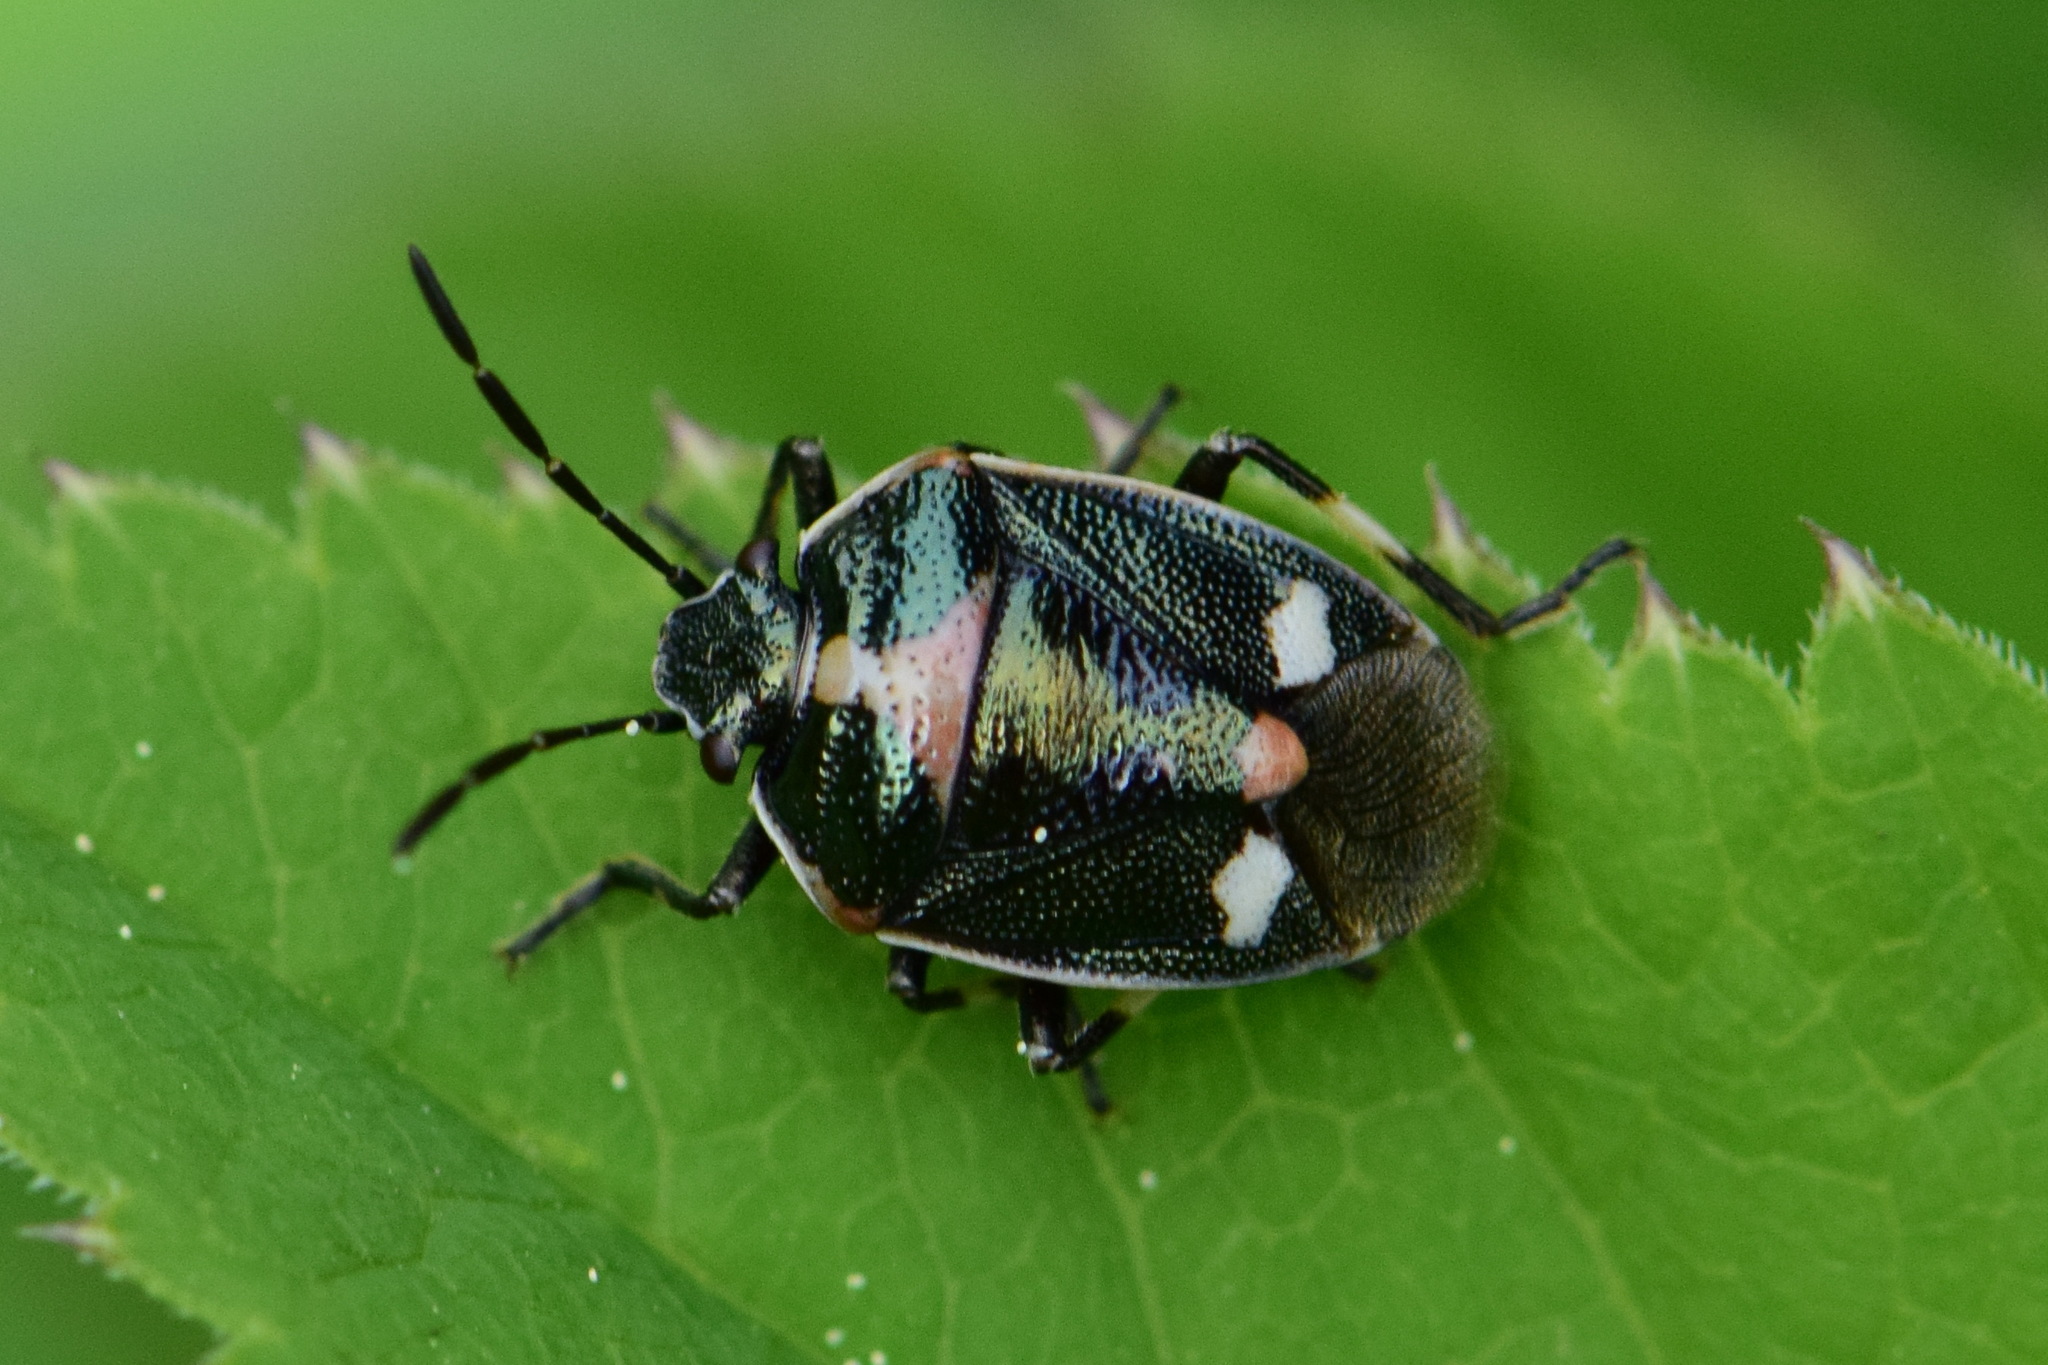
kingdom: Animalia
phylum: Arthropoda
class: Insecta
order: Hemiptera
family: Pentatomidae
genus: Eurydema
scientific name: Eurydema oleracea
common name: Cabbage bug
